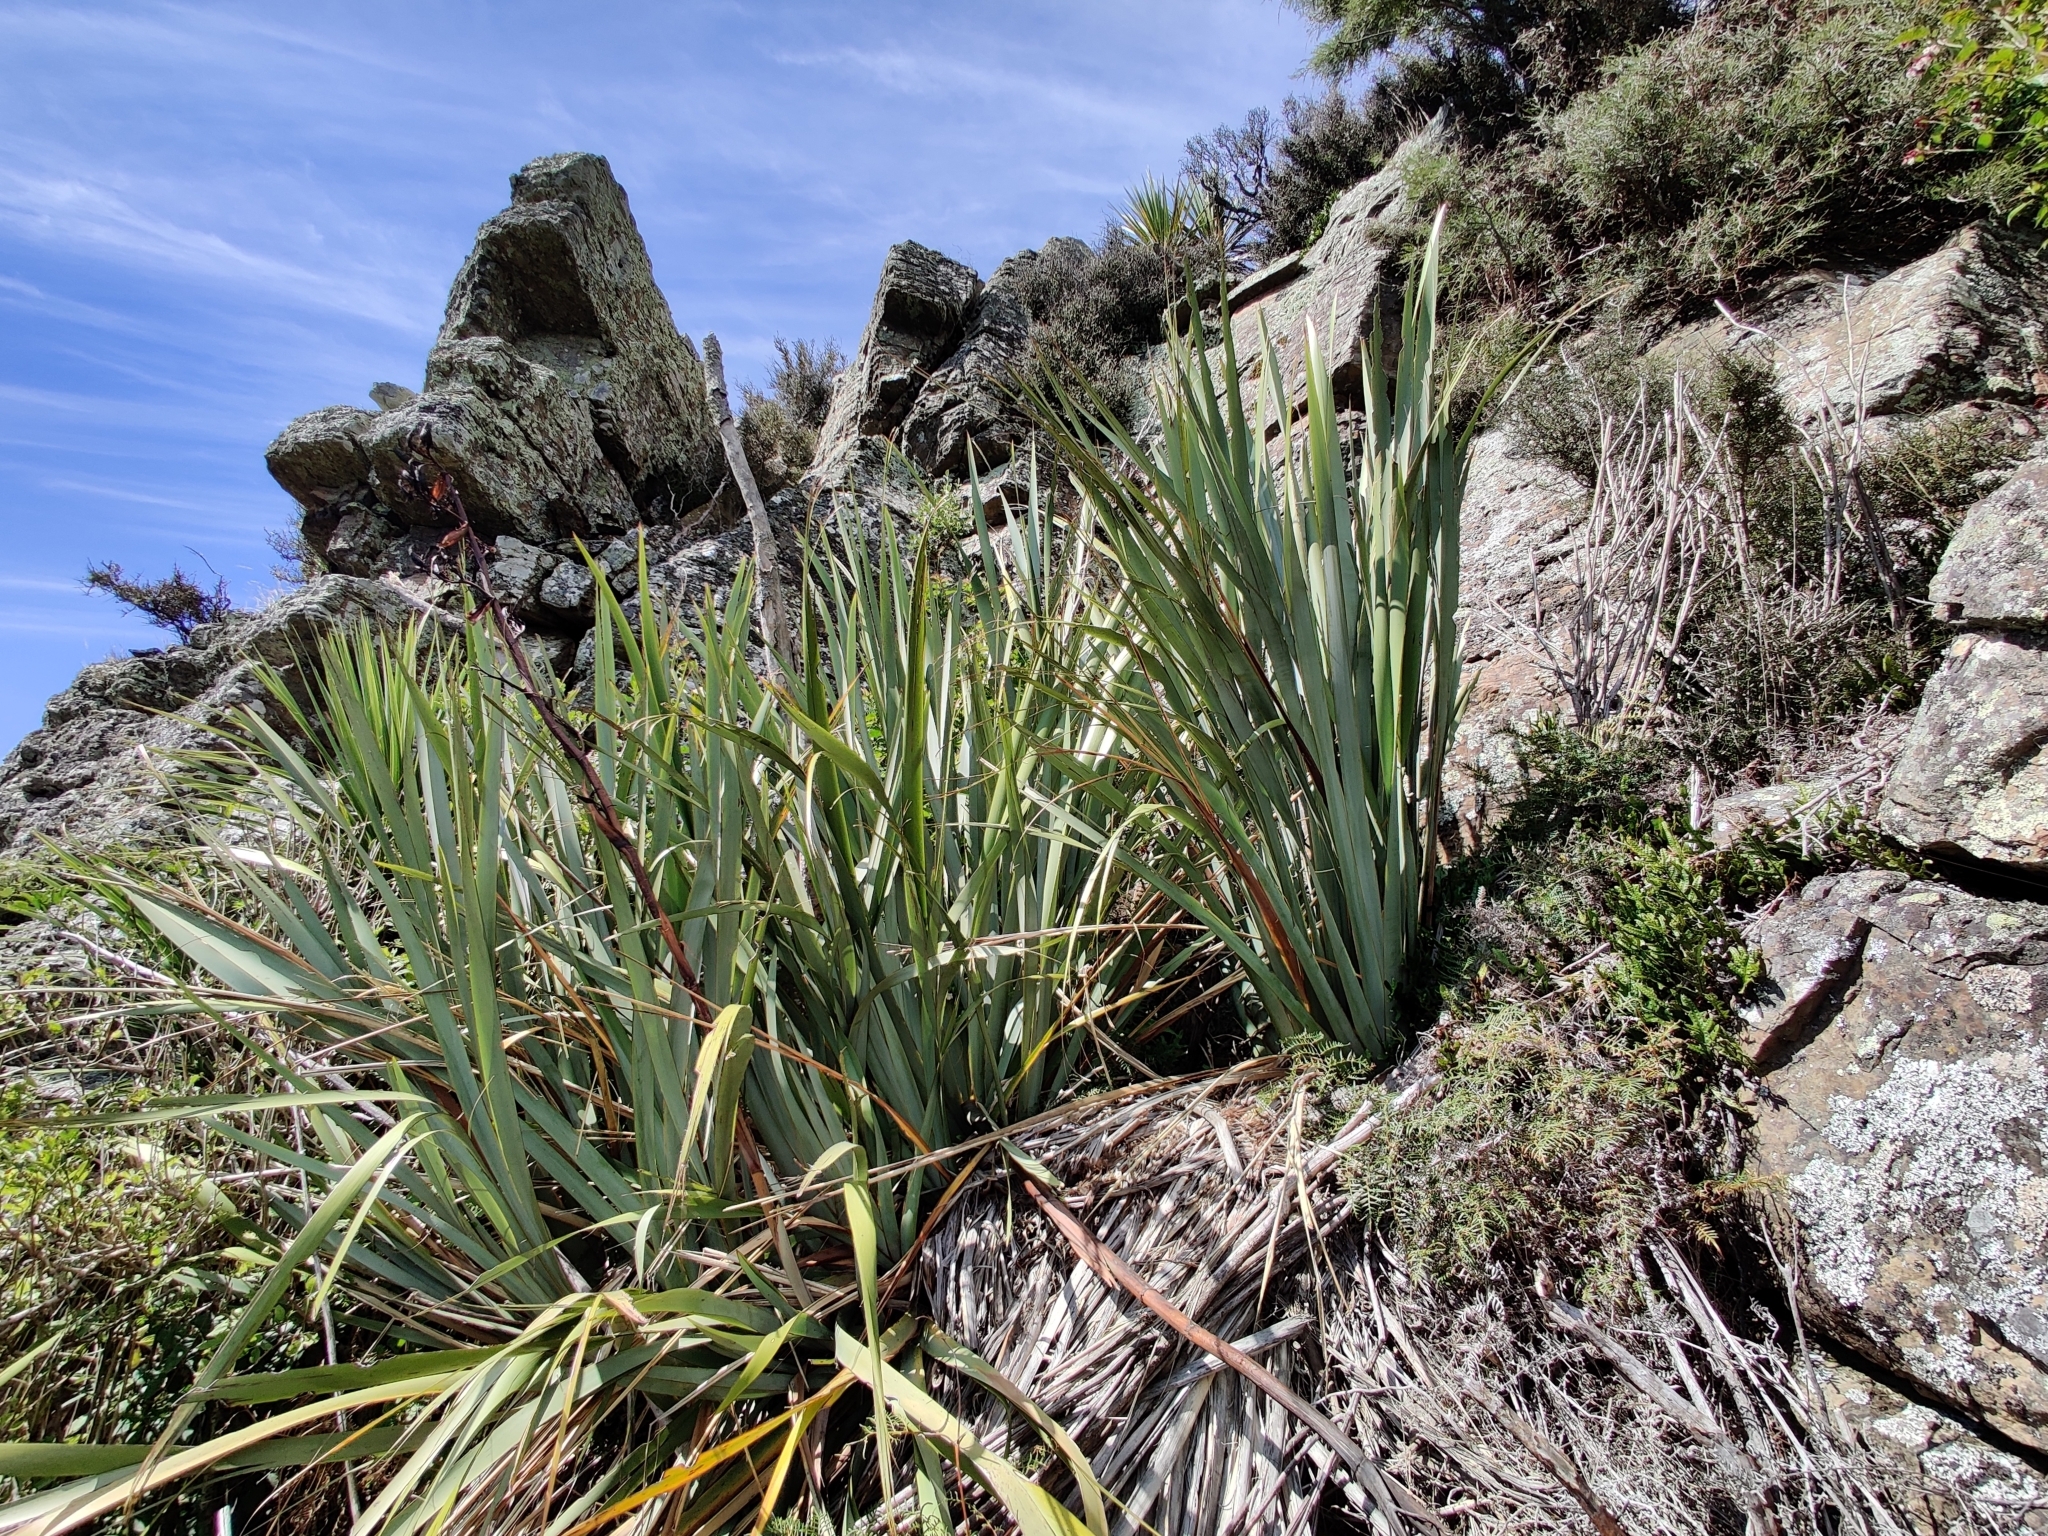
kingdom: Plantae
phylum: Tracheophyta
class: Liliopsida
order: Asparagales
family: Asphodelaceae
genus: Phormium
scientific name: Phormium tenax
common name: New zealand flax
